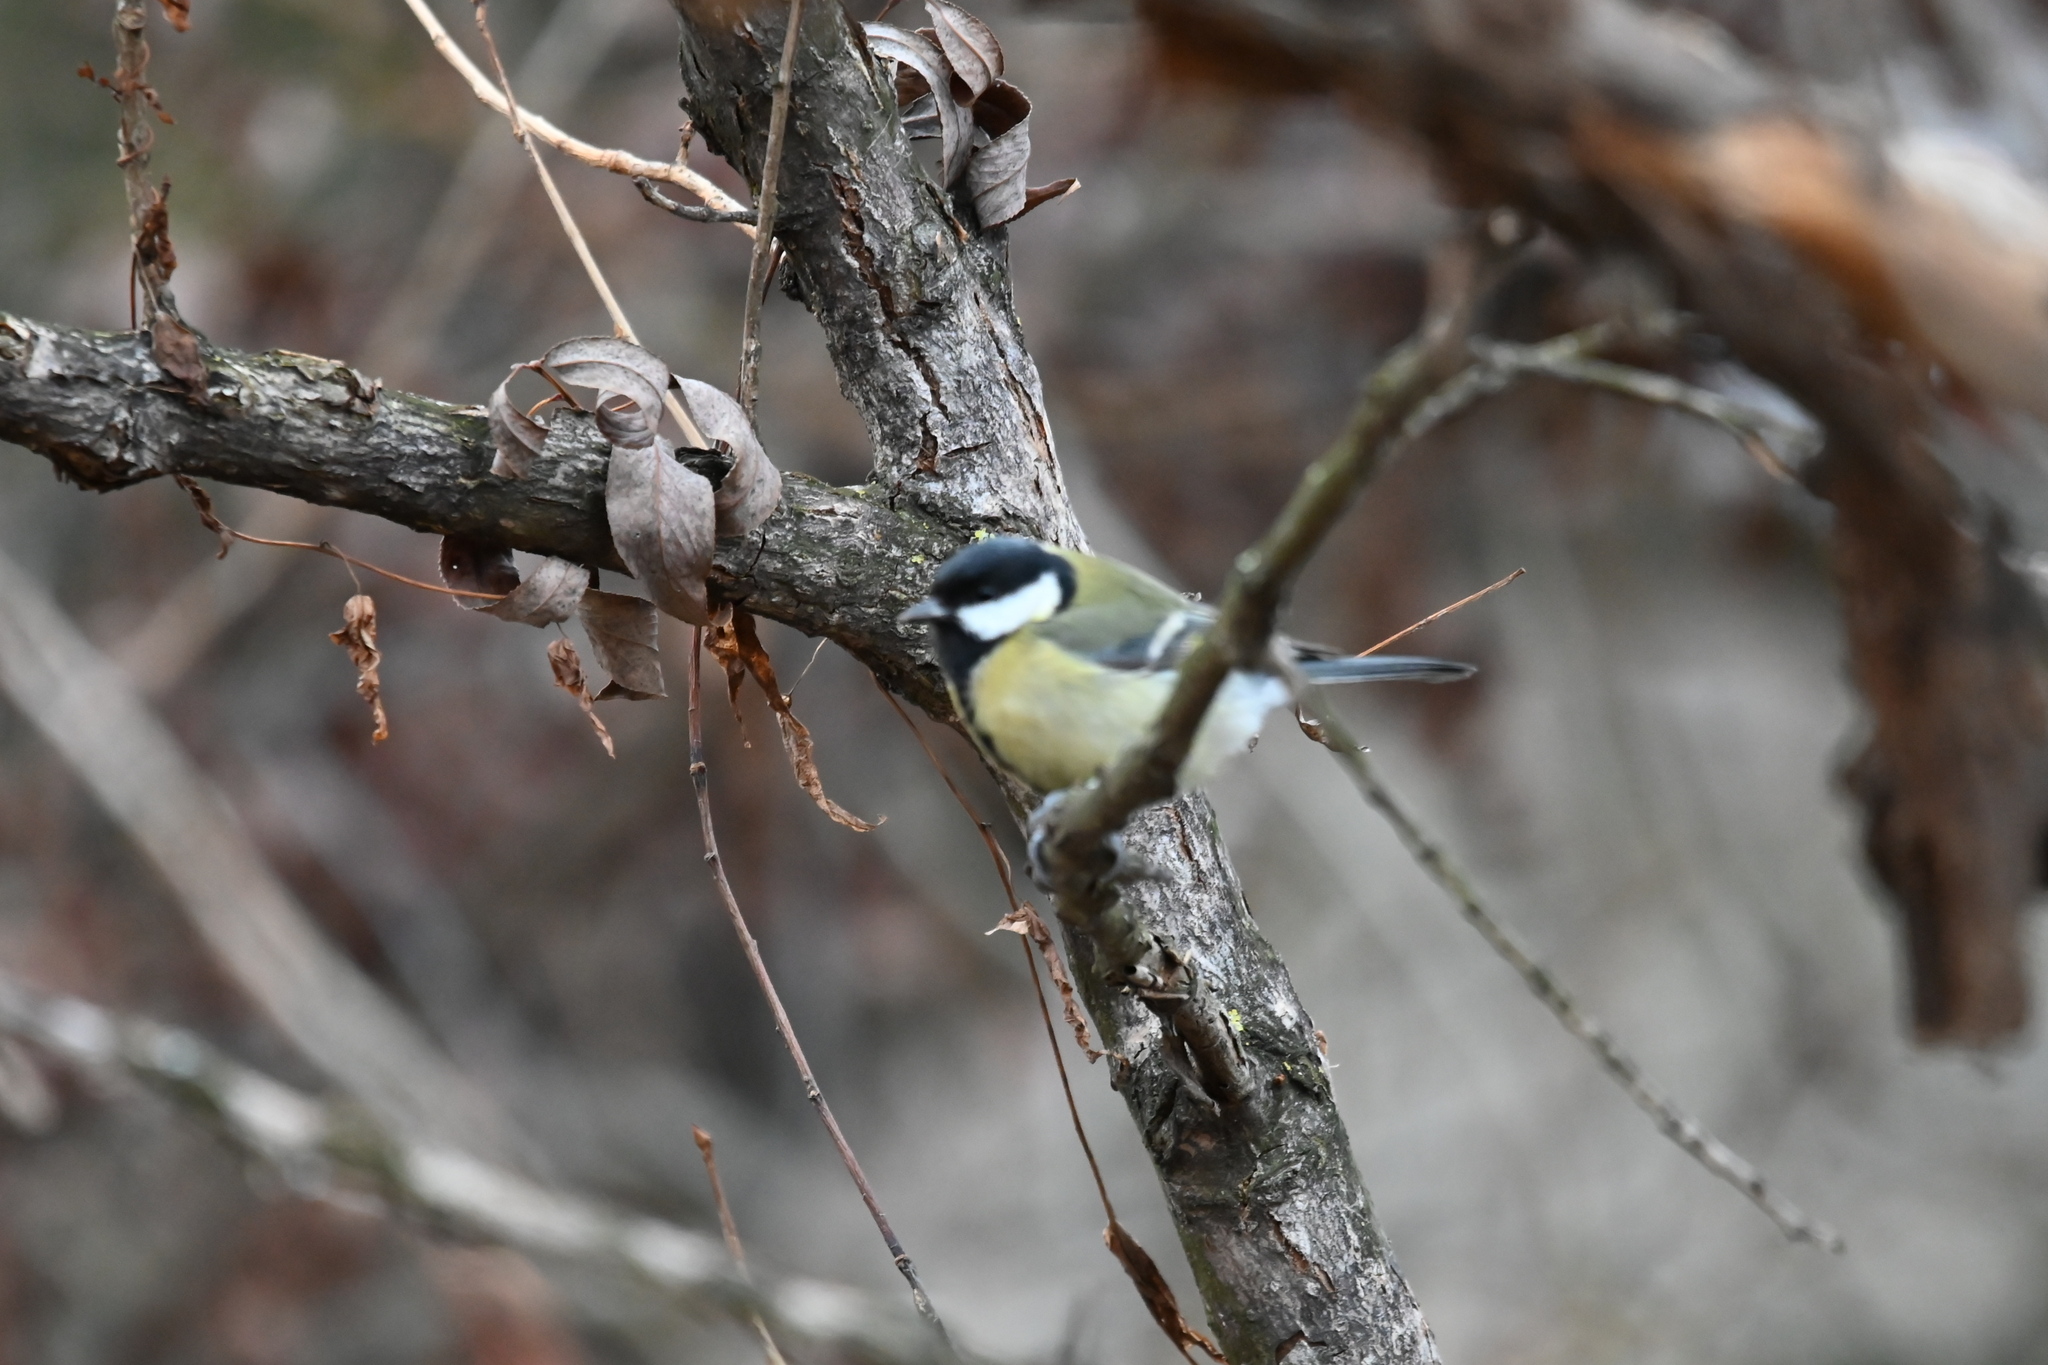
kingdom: Animalia
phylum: Chordata
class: Aves
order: Passeriformes
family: Paridae
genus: Parus
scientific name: Parus major
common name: Great tit
